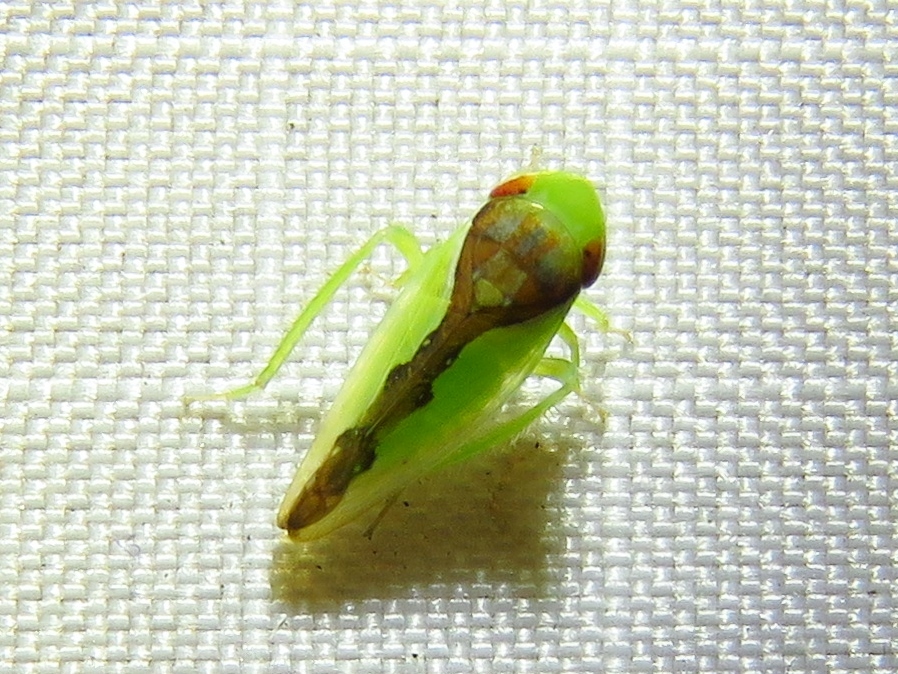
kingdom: Animalia
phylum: Arthropoda
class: Insecta
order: Hemiptera
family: Cicadellidae
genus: Omansobara ing
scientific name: Omansobara ing Omansobara palliolata
